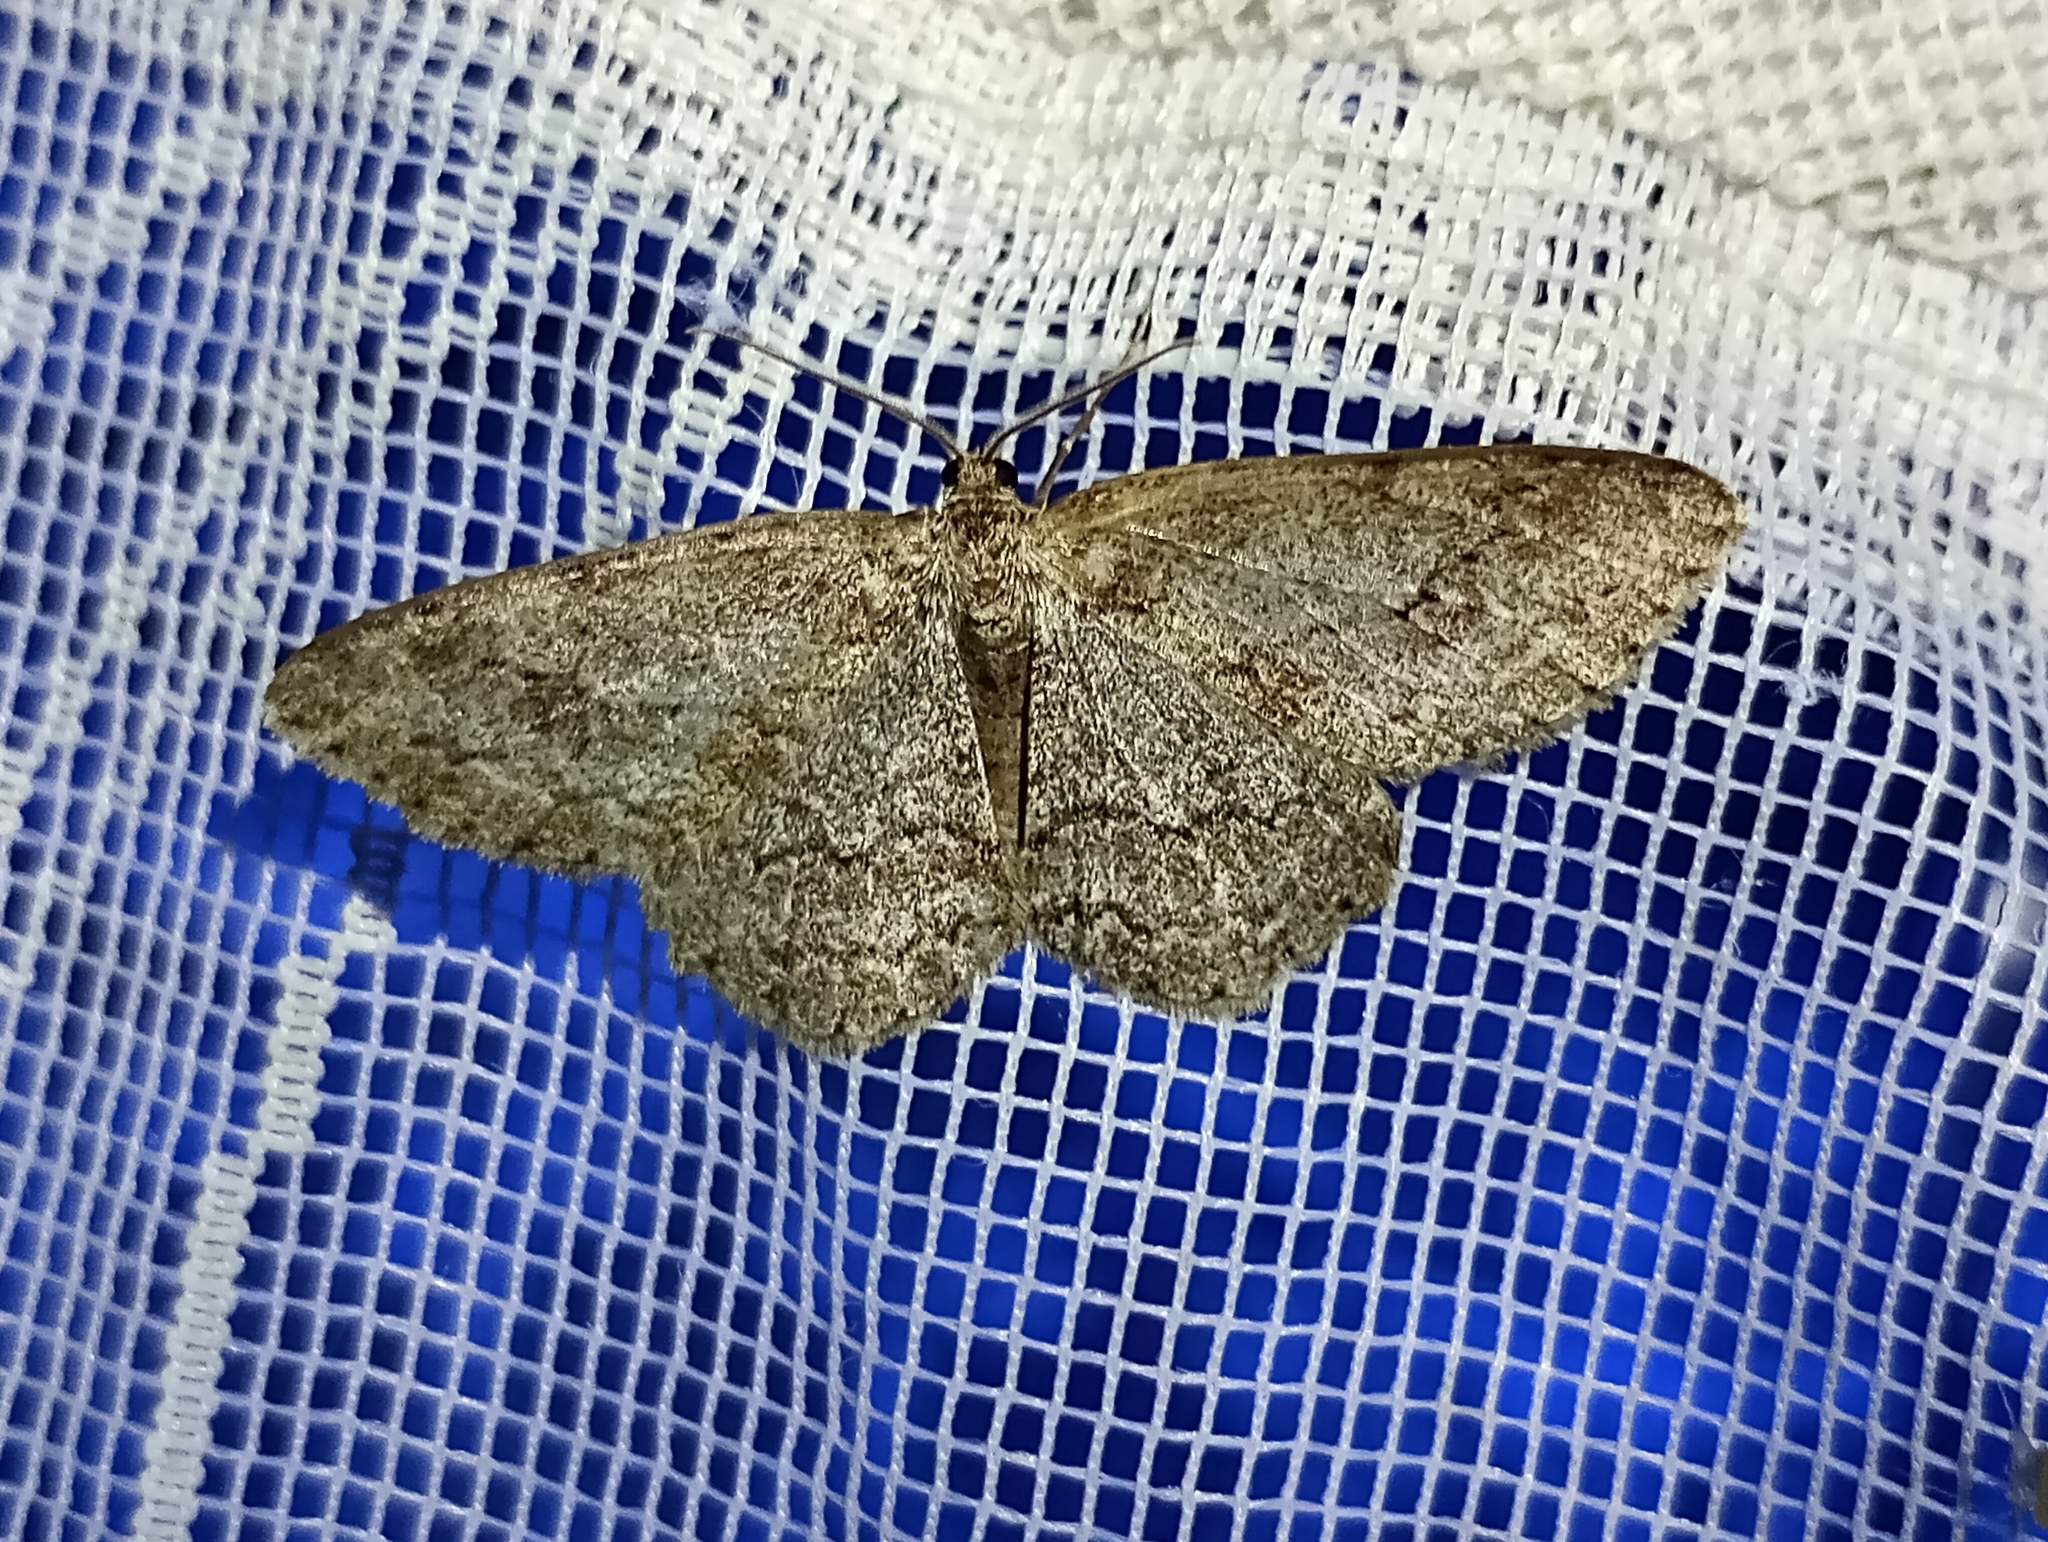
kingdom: Animalia
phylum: Arthropoda
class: Insecta
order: Lepidoptera
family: Geometridae
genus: Ectropis
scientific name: Ectropis crepuscularia
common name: Engrailed
